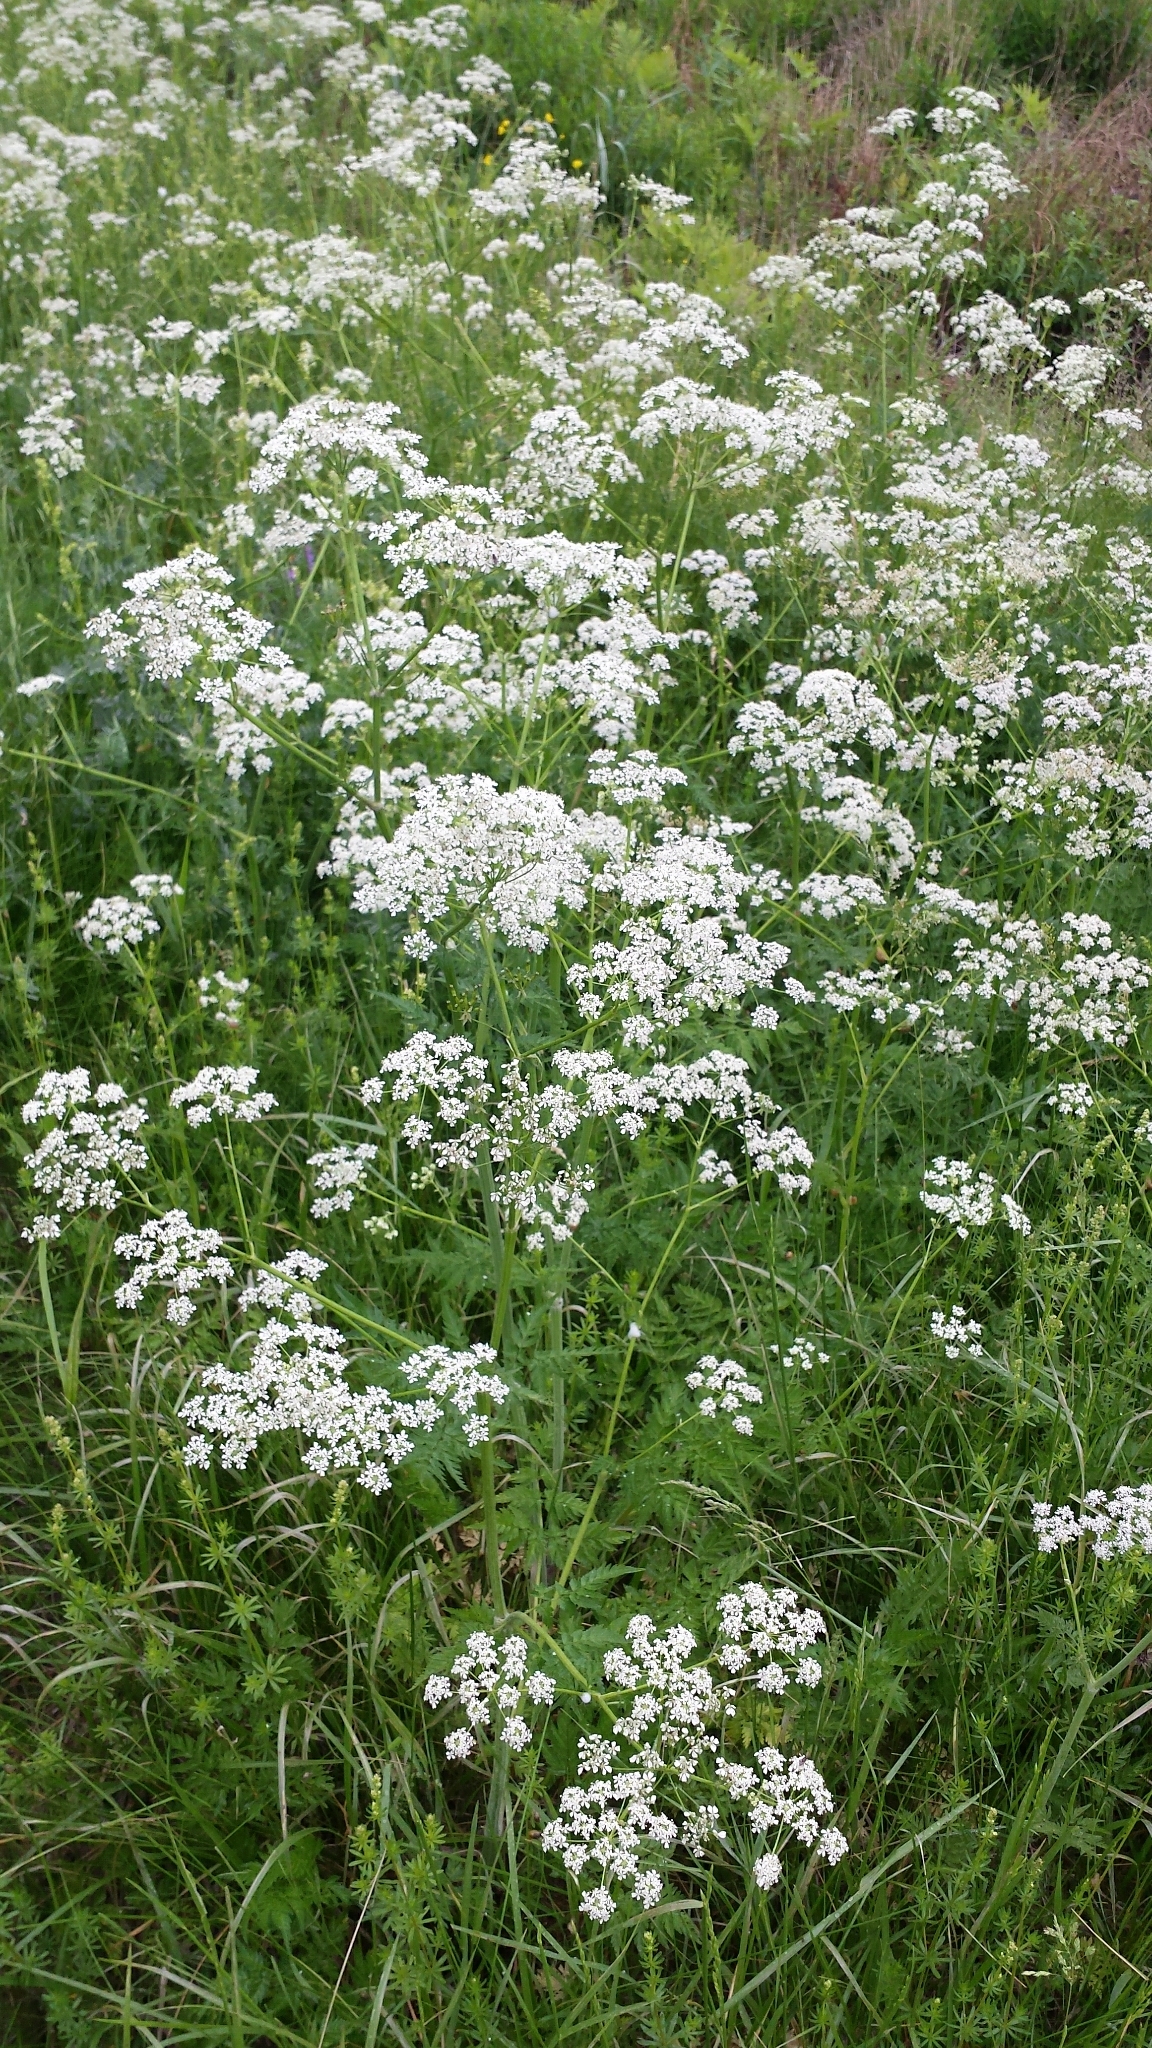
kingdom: Plantae
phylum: Tracheophyta
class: Magnoliopsida
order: Apiales
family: Apiaceae
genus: Anthriscus
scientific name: Anthriscus sylvestris
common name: Cow parsley
